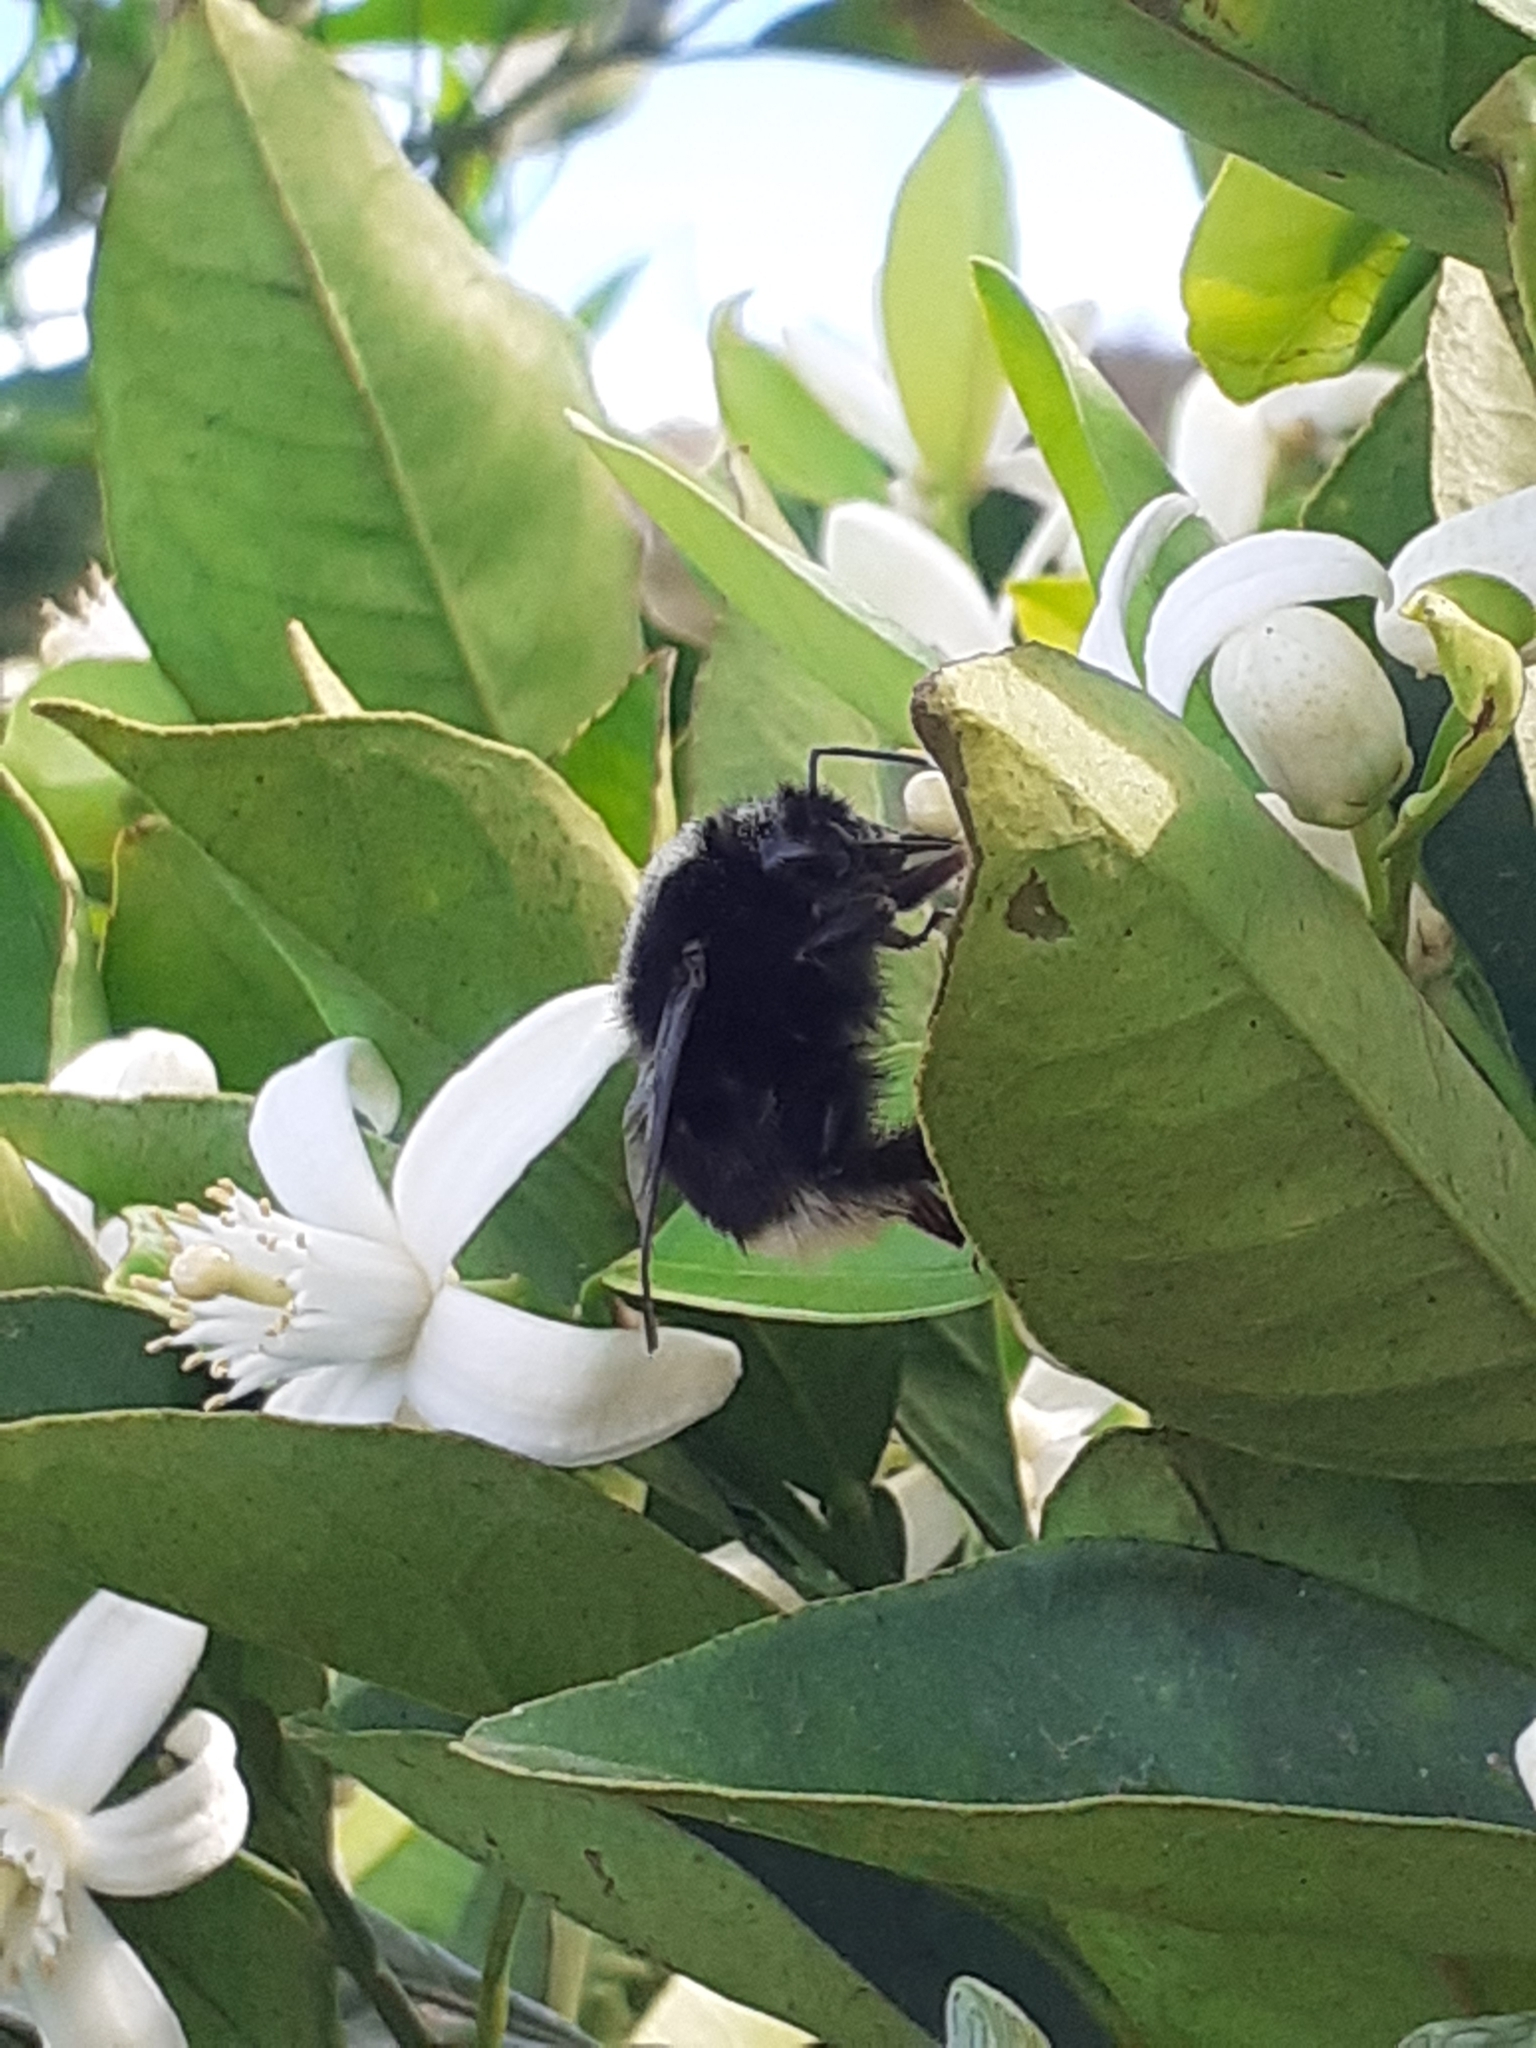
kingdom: Animalia
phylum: Arthropoda
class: Insecta
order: Hymenoptera
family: Apidae
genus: Bombus
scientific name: Bombus terrestris
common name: Buff-tailed bumblebee
